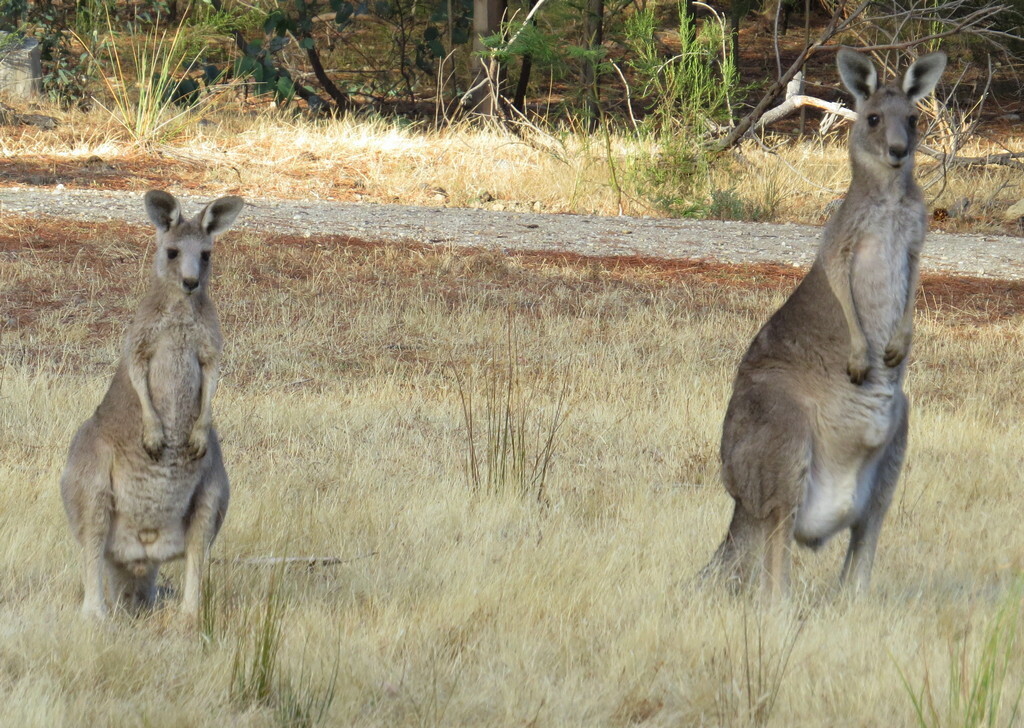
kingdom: Animalia
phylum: Chordata
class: Mammalia
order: Diprotodontia
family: Macropodidae
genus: Macropus
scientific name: Macropus giganteus
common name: Eastern grey kangaroo
